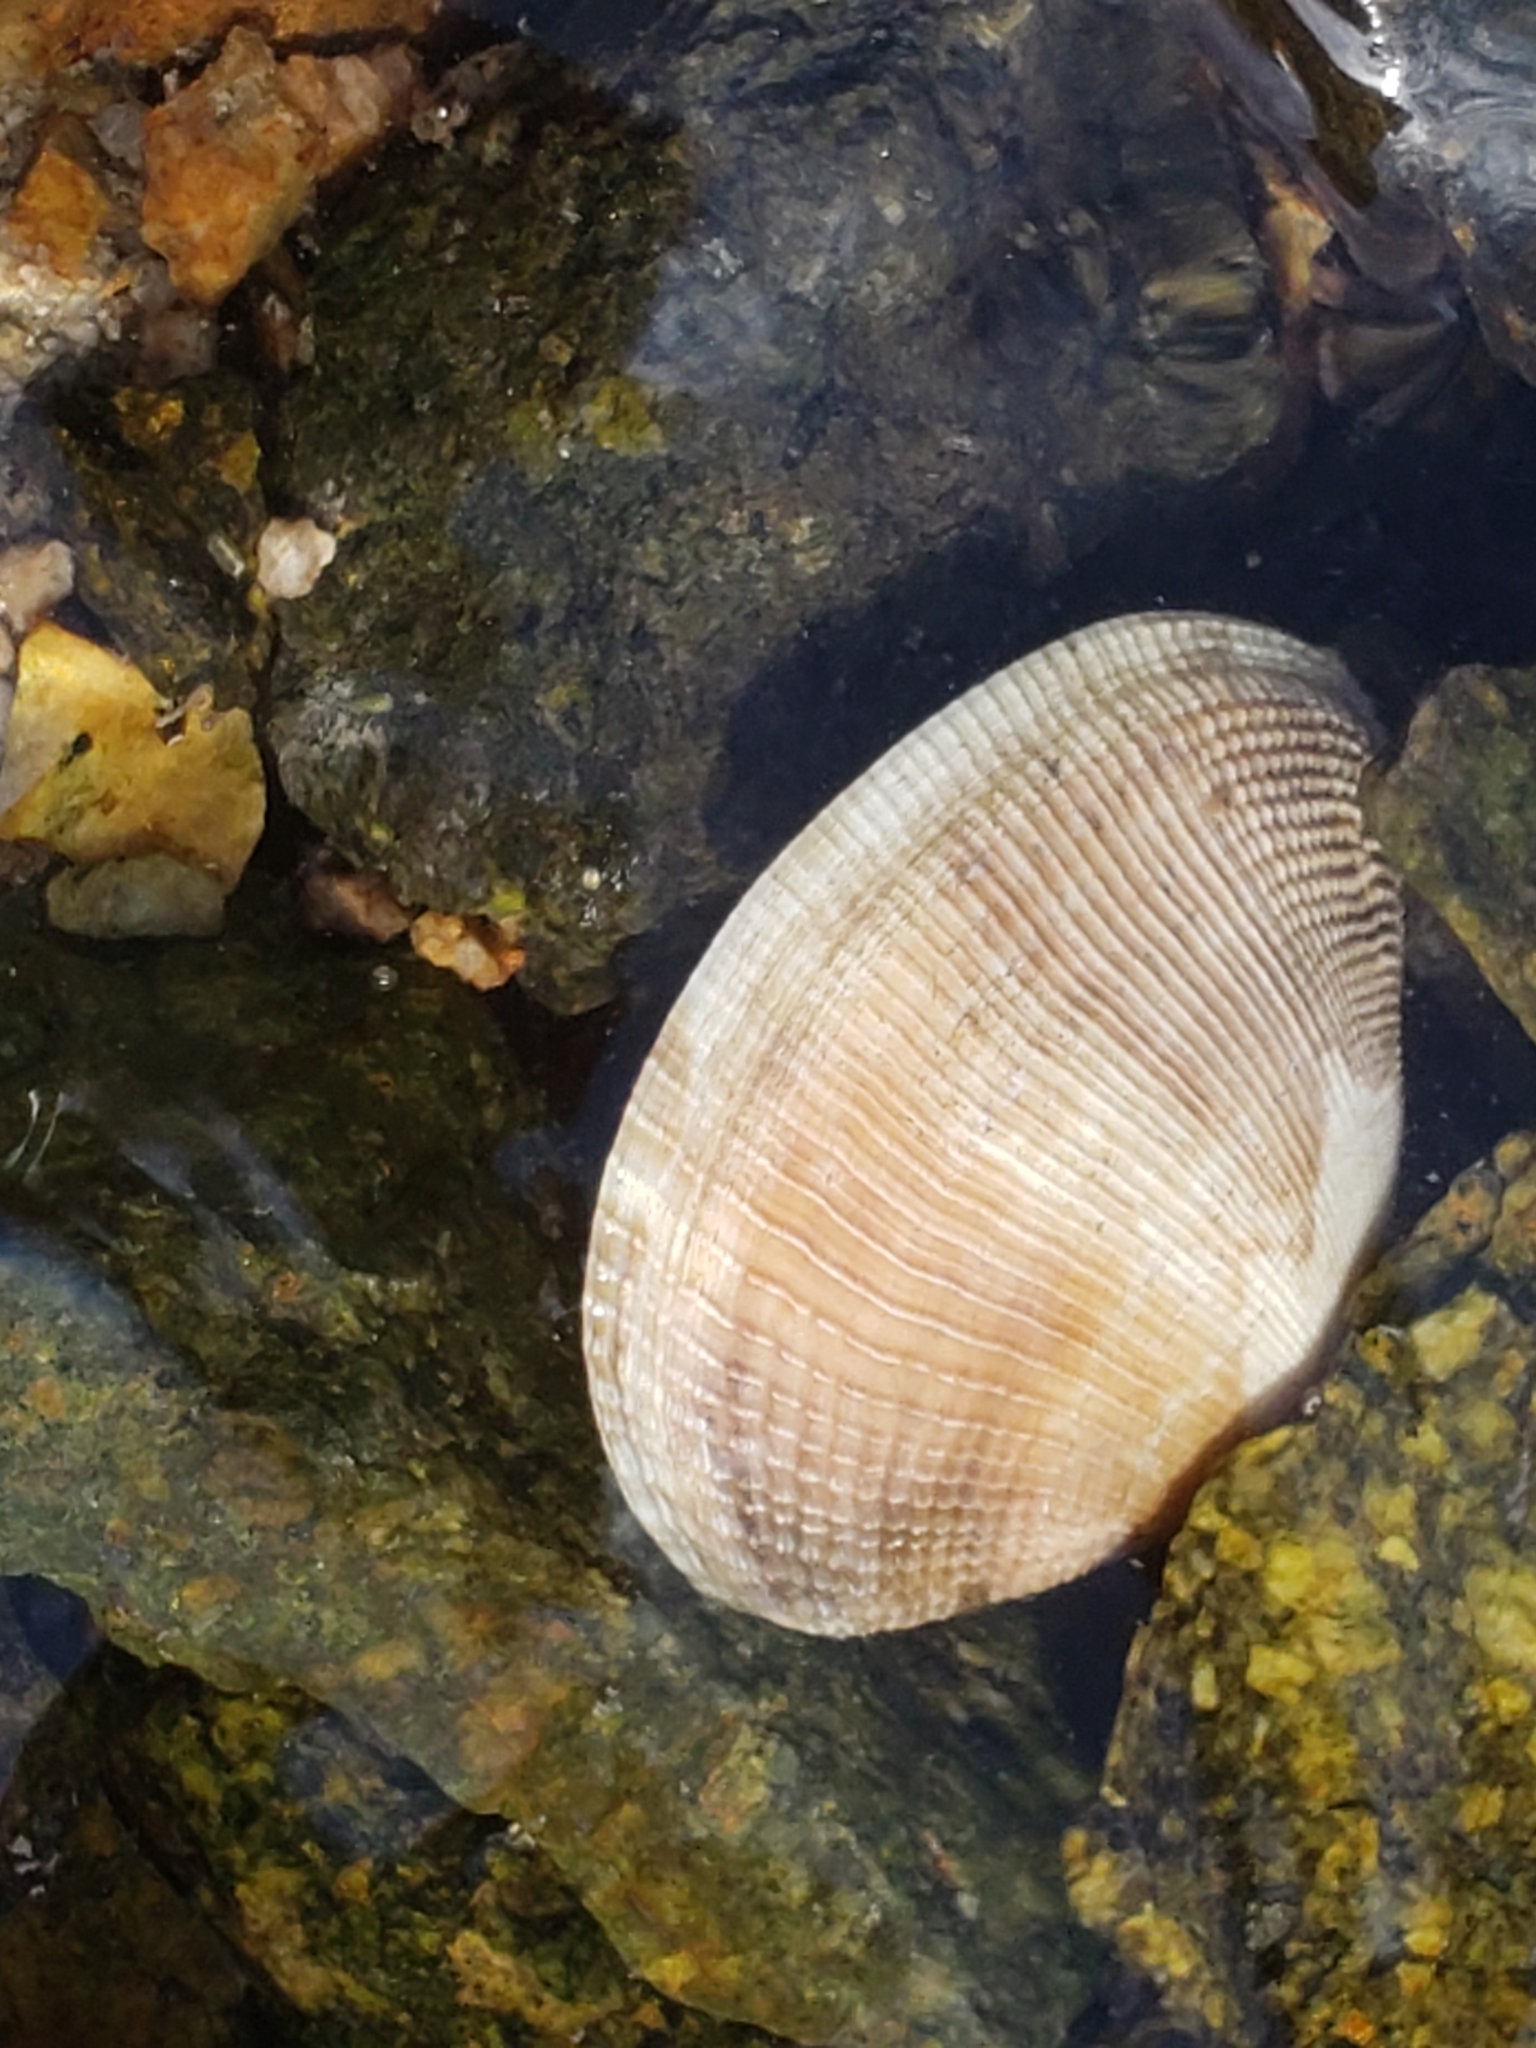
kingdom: Animalia
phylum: Mollusca
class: Bivalvia
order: Venerida
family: Veneridae
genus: Ruditapes
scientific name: Ruditapes philippinarum
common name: Manila clam
